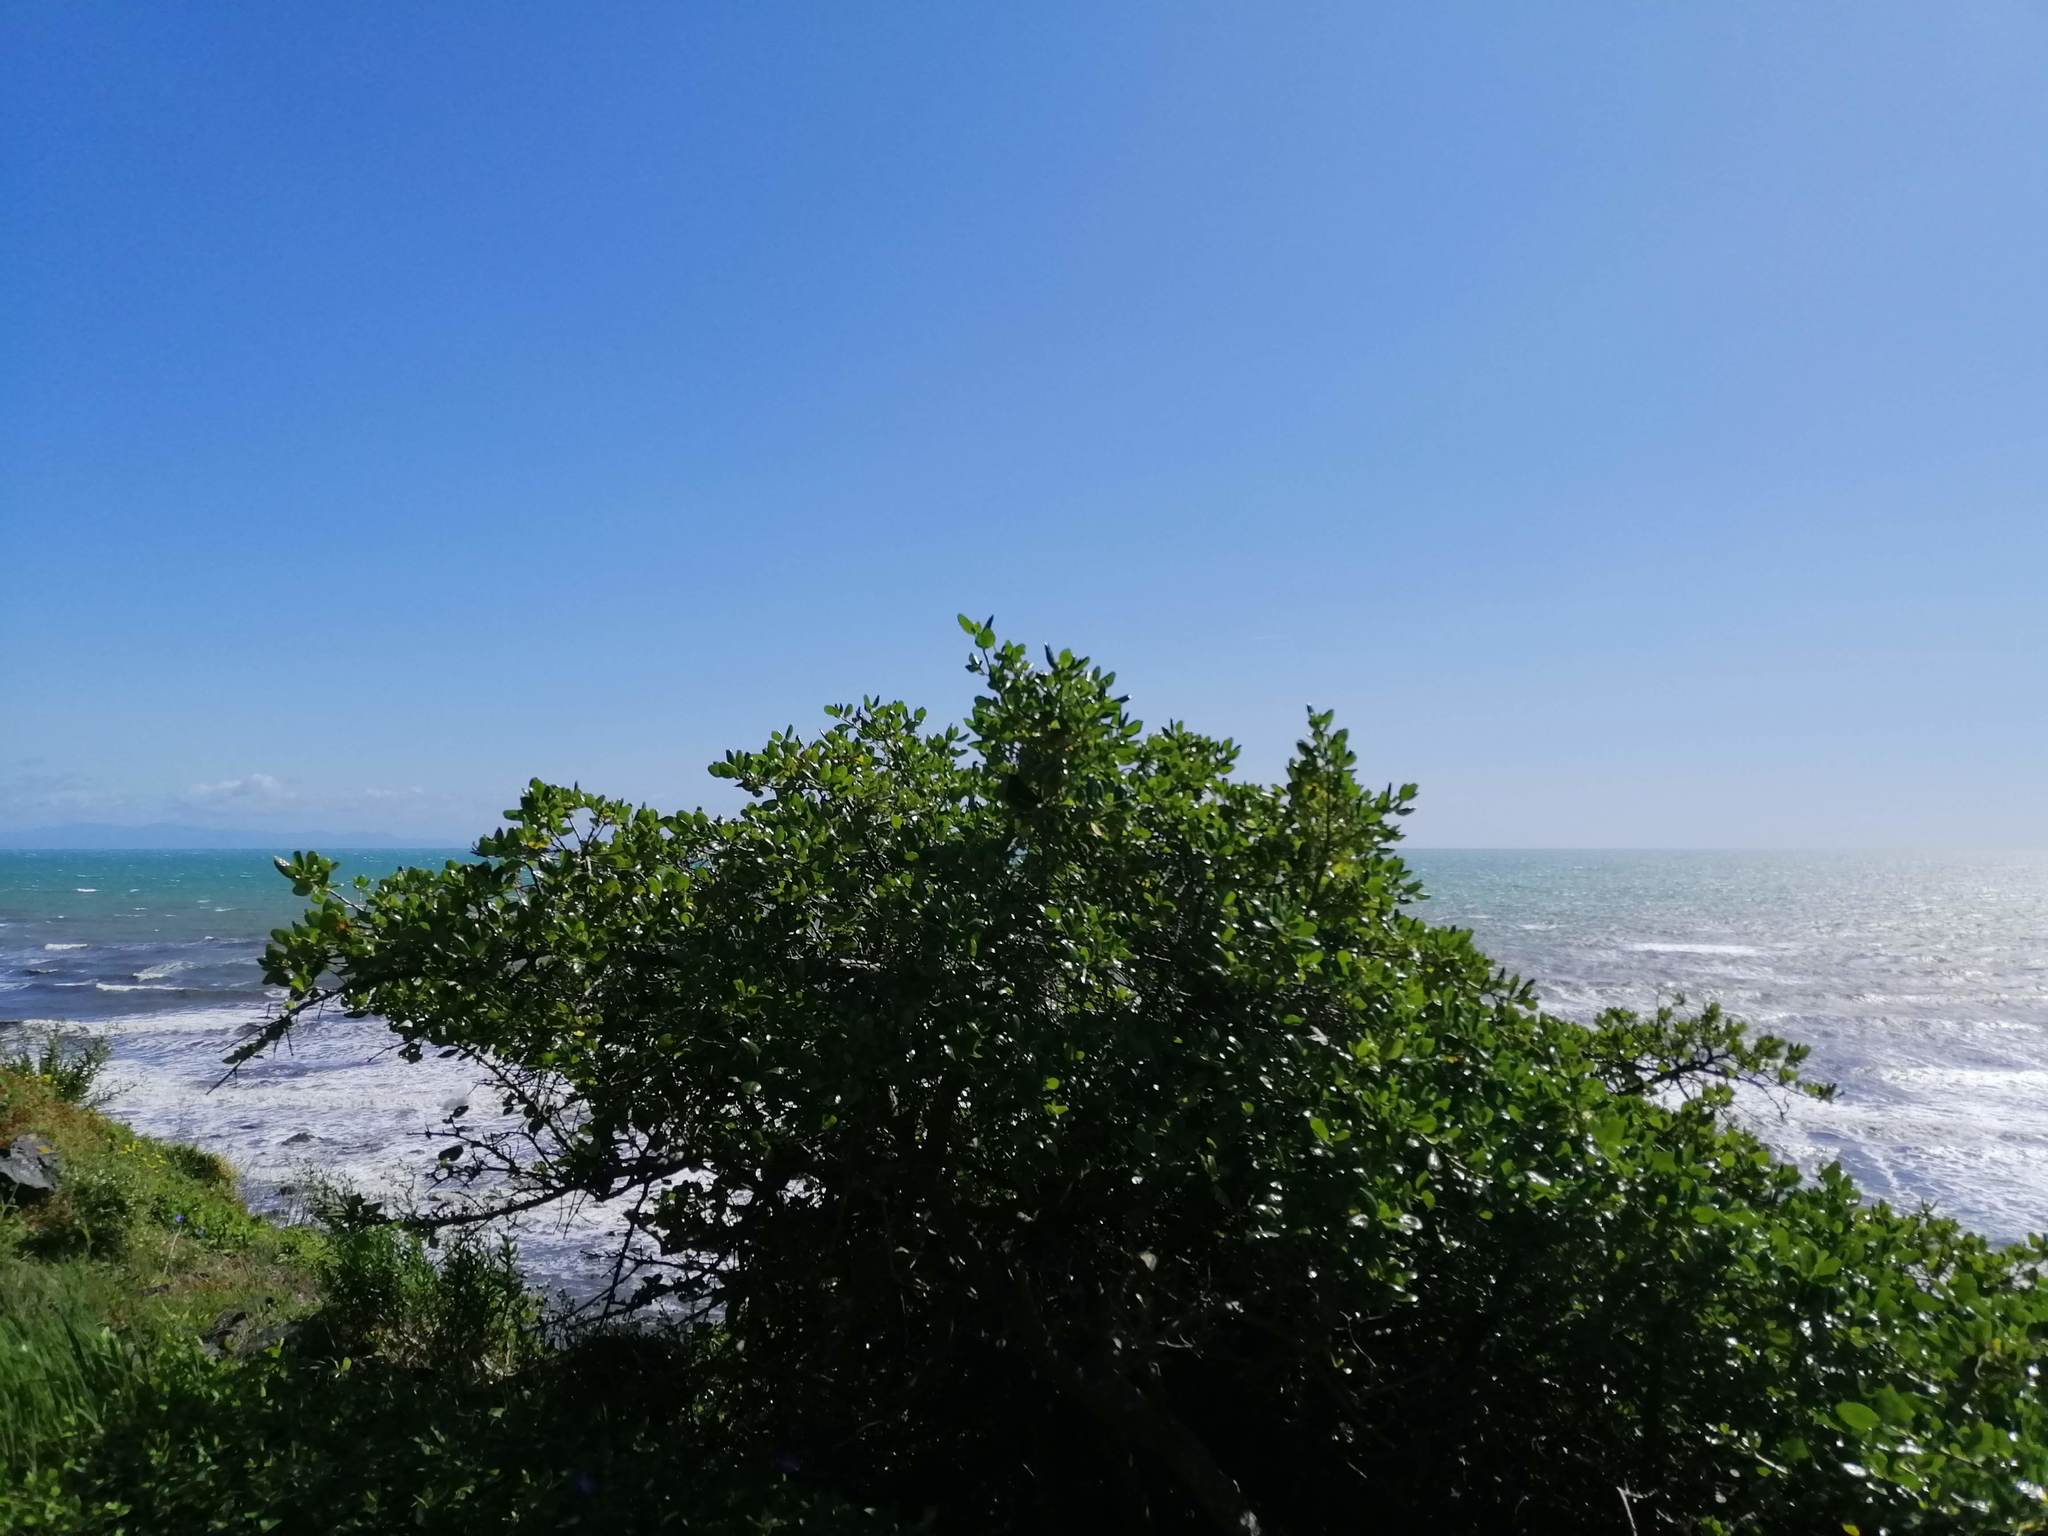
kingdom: Animalia
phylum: Chordata
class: Aves
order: Passeriformes
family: Meliphagidae
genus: Anthornis
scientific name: Anthornis melanura
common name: New zealand bellbird
